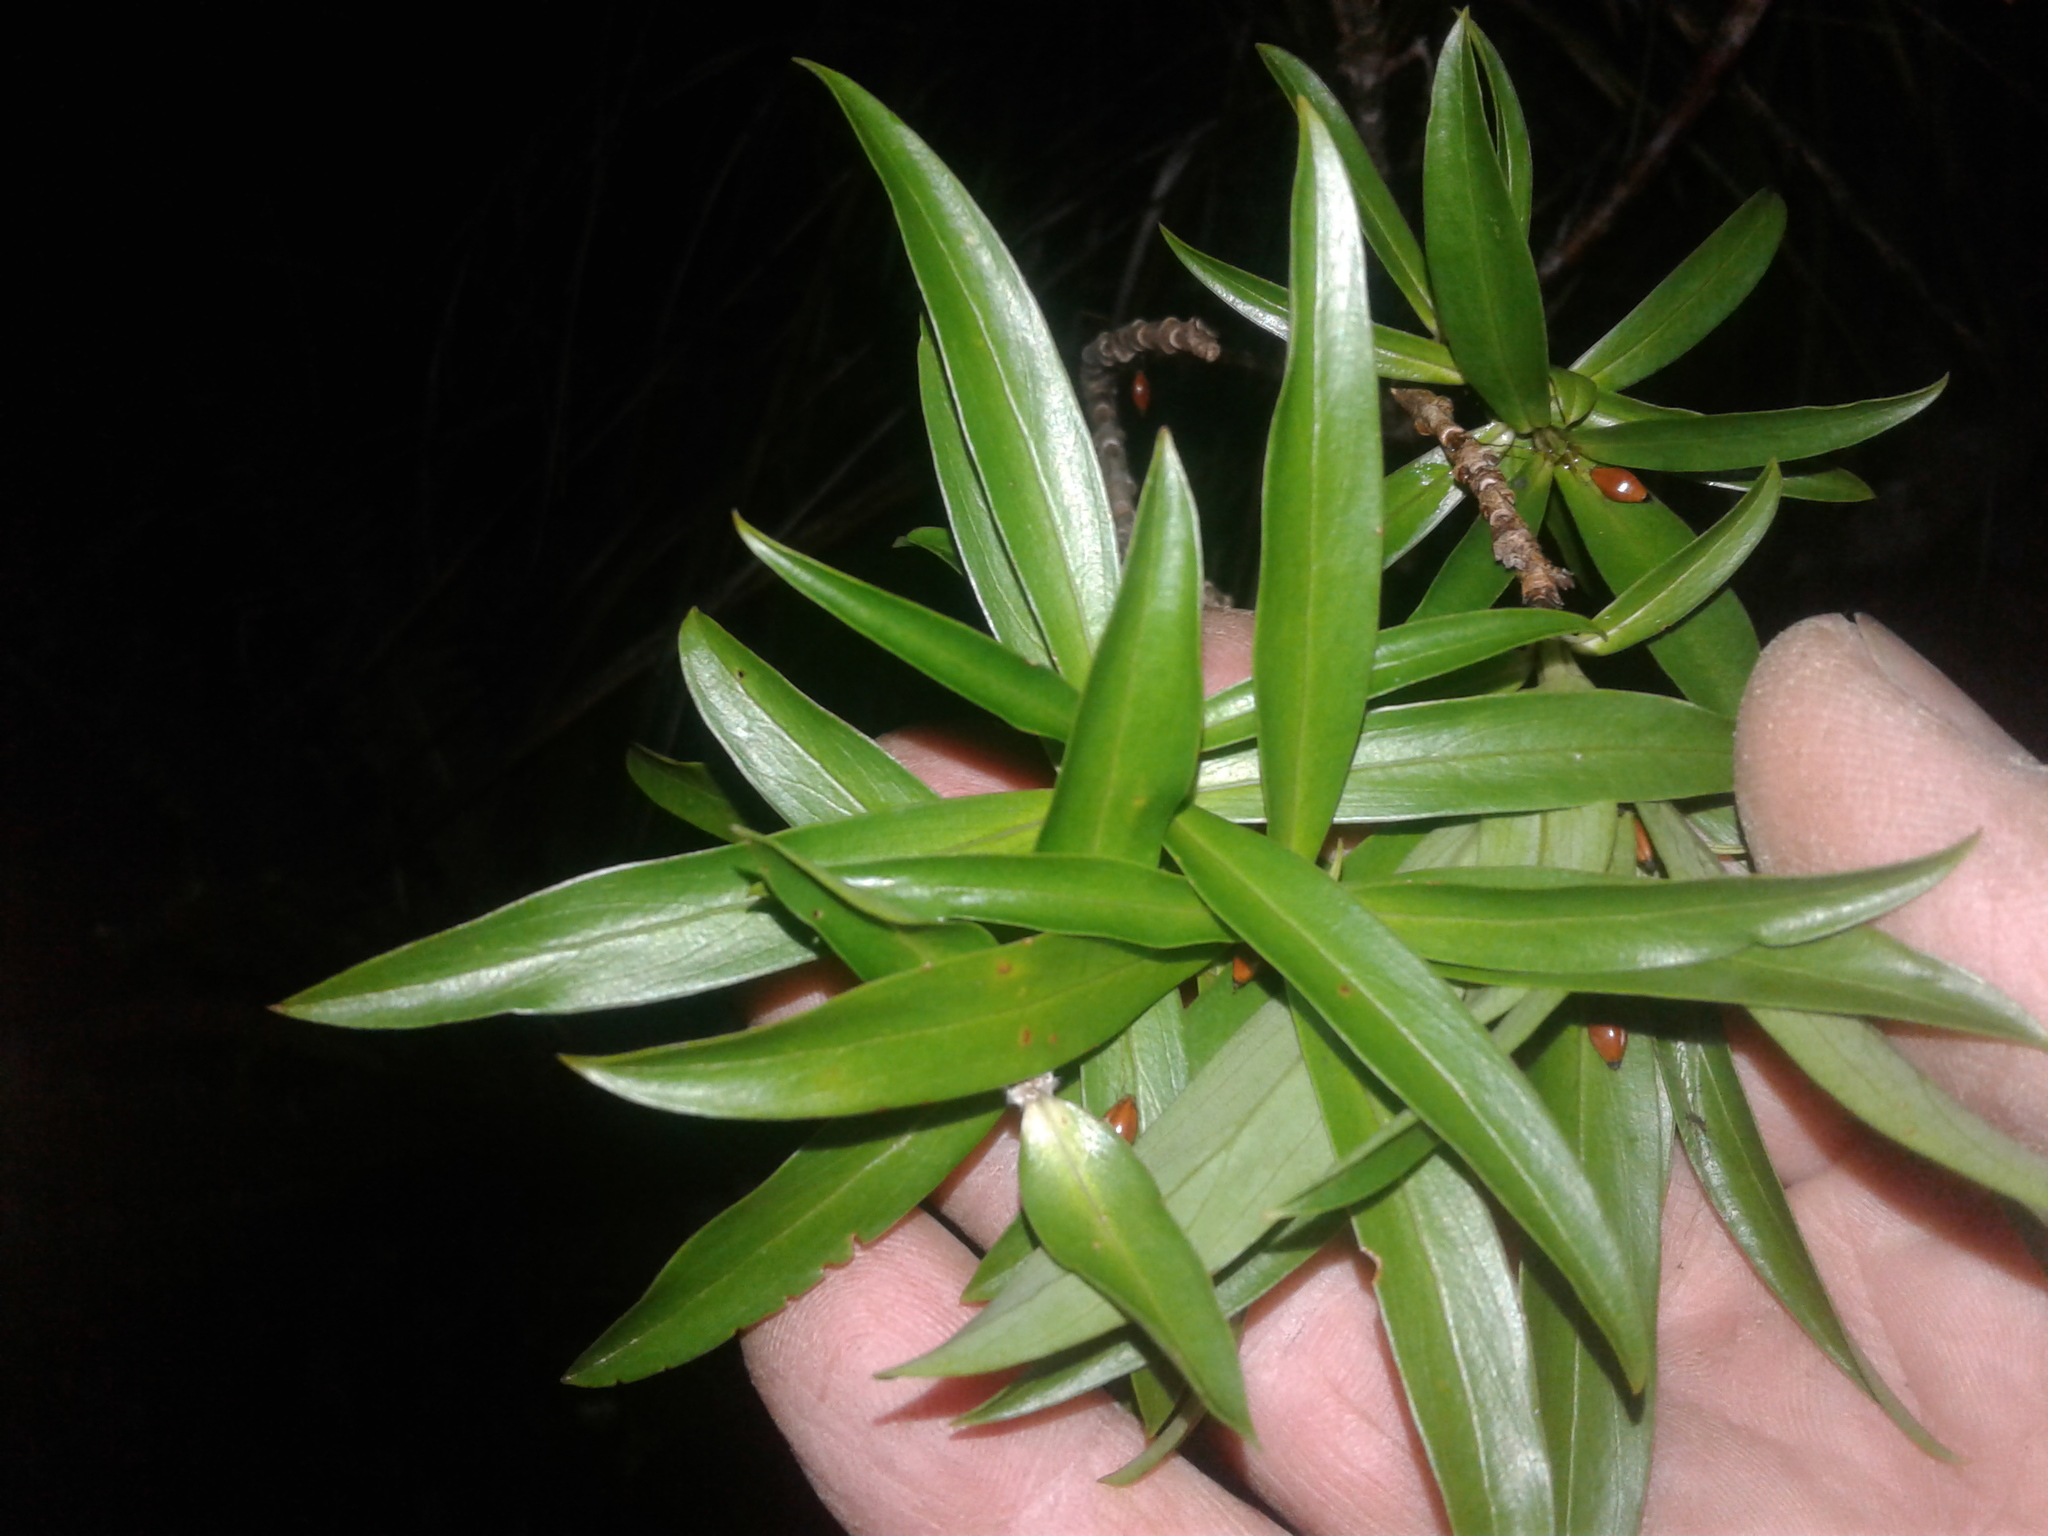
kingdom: Plantae
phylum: Tracheophyta
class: Magnoliopsida
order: Malvales
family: Thymelaeaceae
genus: Pimelea
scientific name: Pimelea longifolia
